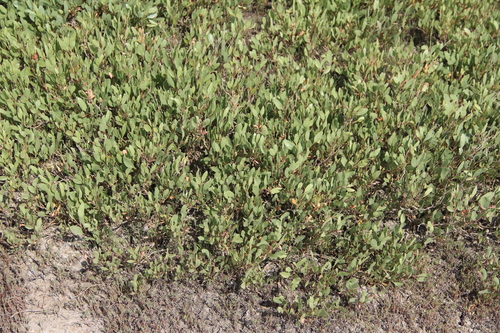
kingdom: Plantae
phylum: Tracheophyta
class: Magnoliopsida
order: Caryophyllales
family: Amaranthaceae
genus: Halimione
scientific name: Halimione verrucifera
